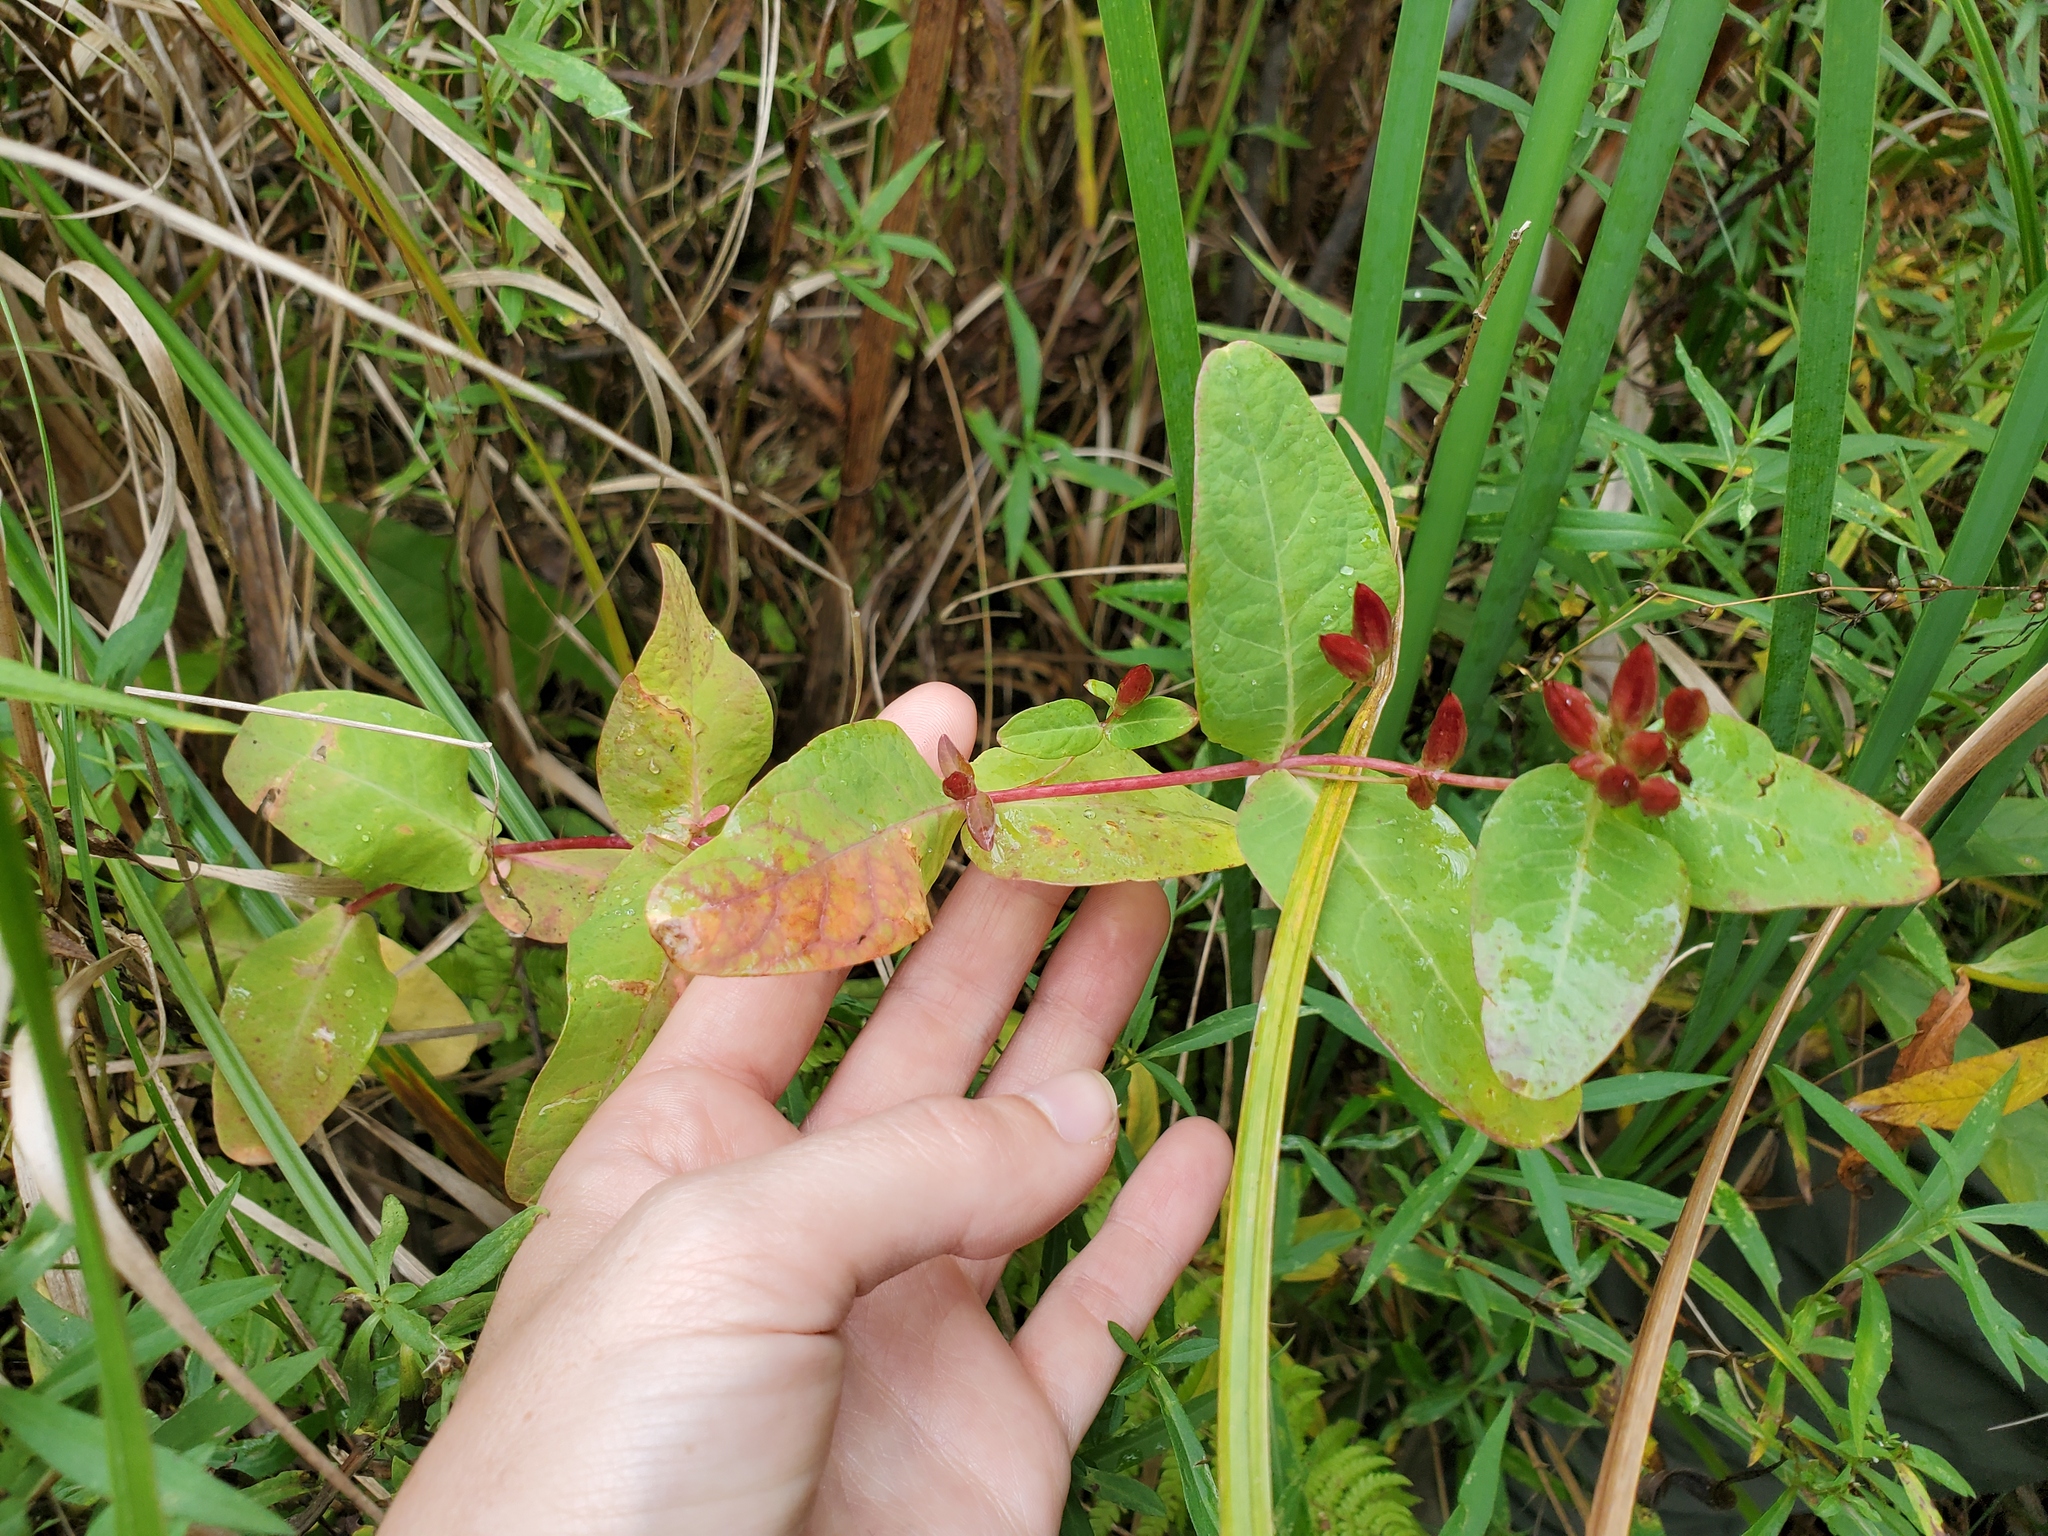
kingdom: Plantae
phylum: Tracheophyta
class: Magnoliopsida
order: Malpighiales
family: Hypericaceae
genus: Triadenum
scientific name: Triadenum fraseri
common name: Fraser's marsh st. johnswort
